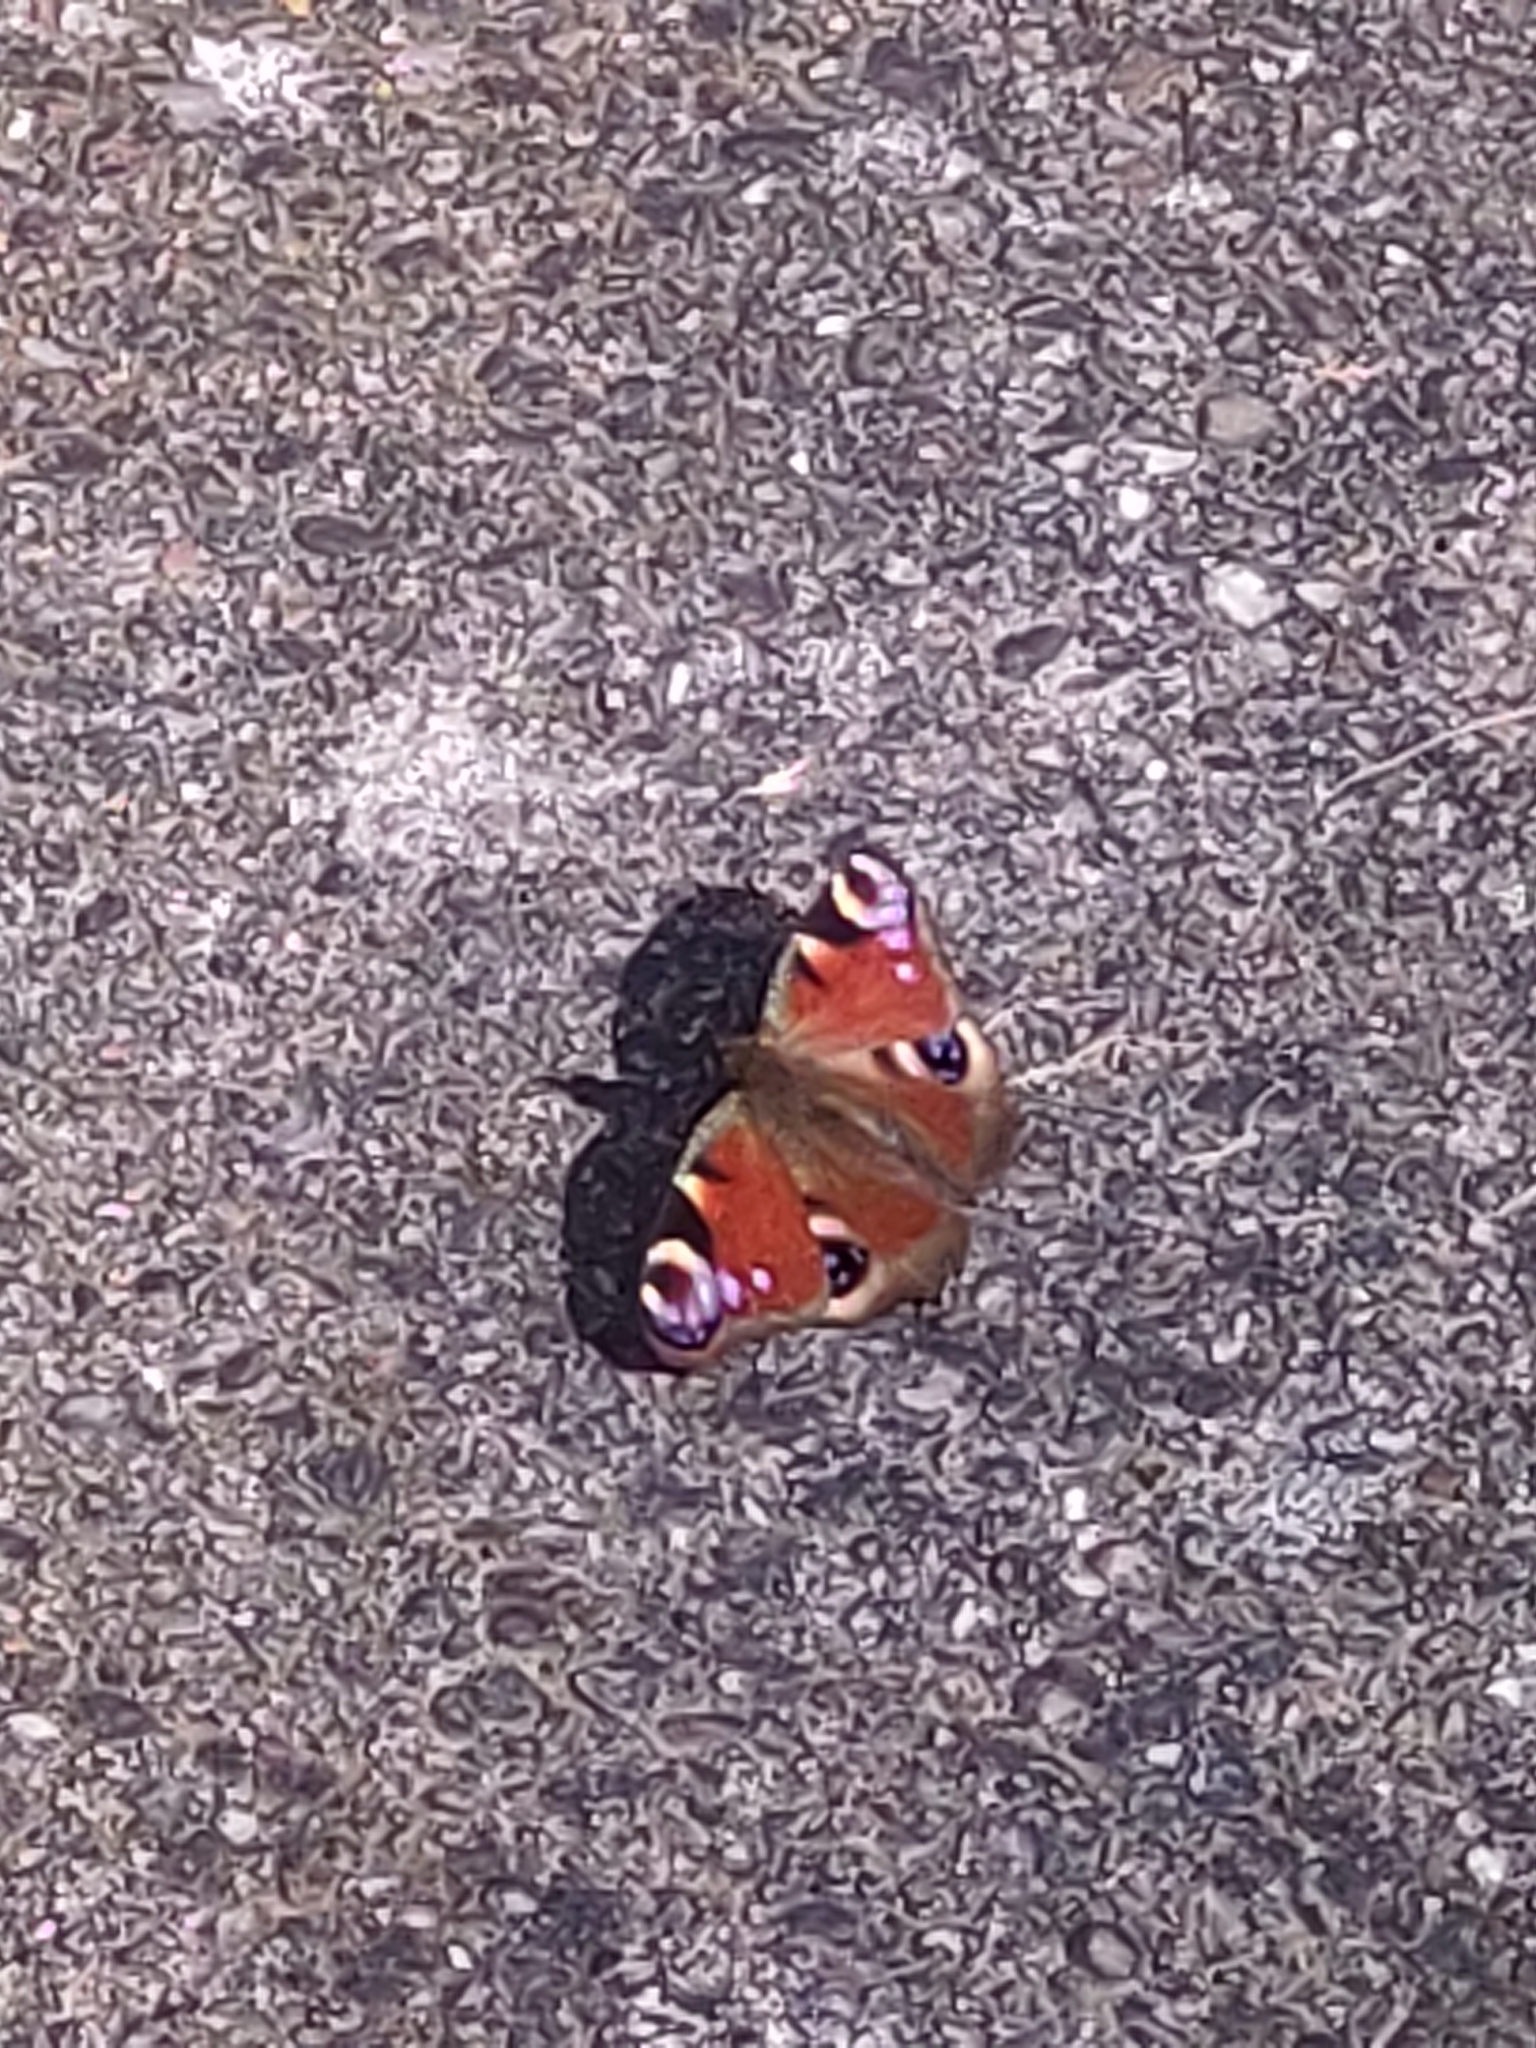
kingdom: Animalia
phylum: Arthropoda
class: Insecta
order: Lepidoptera
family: Nymphalidae
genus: Aglais
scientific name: Aglais io
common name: Peacock
